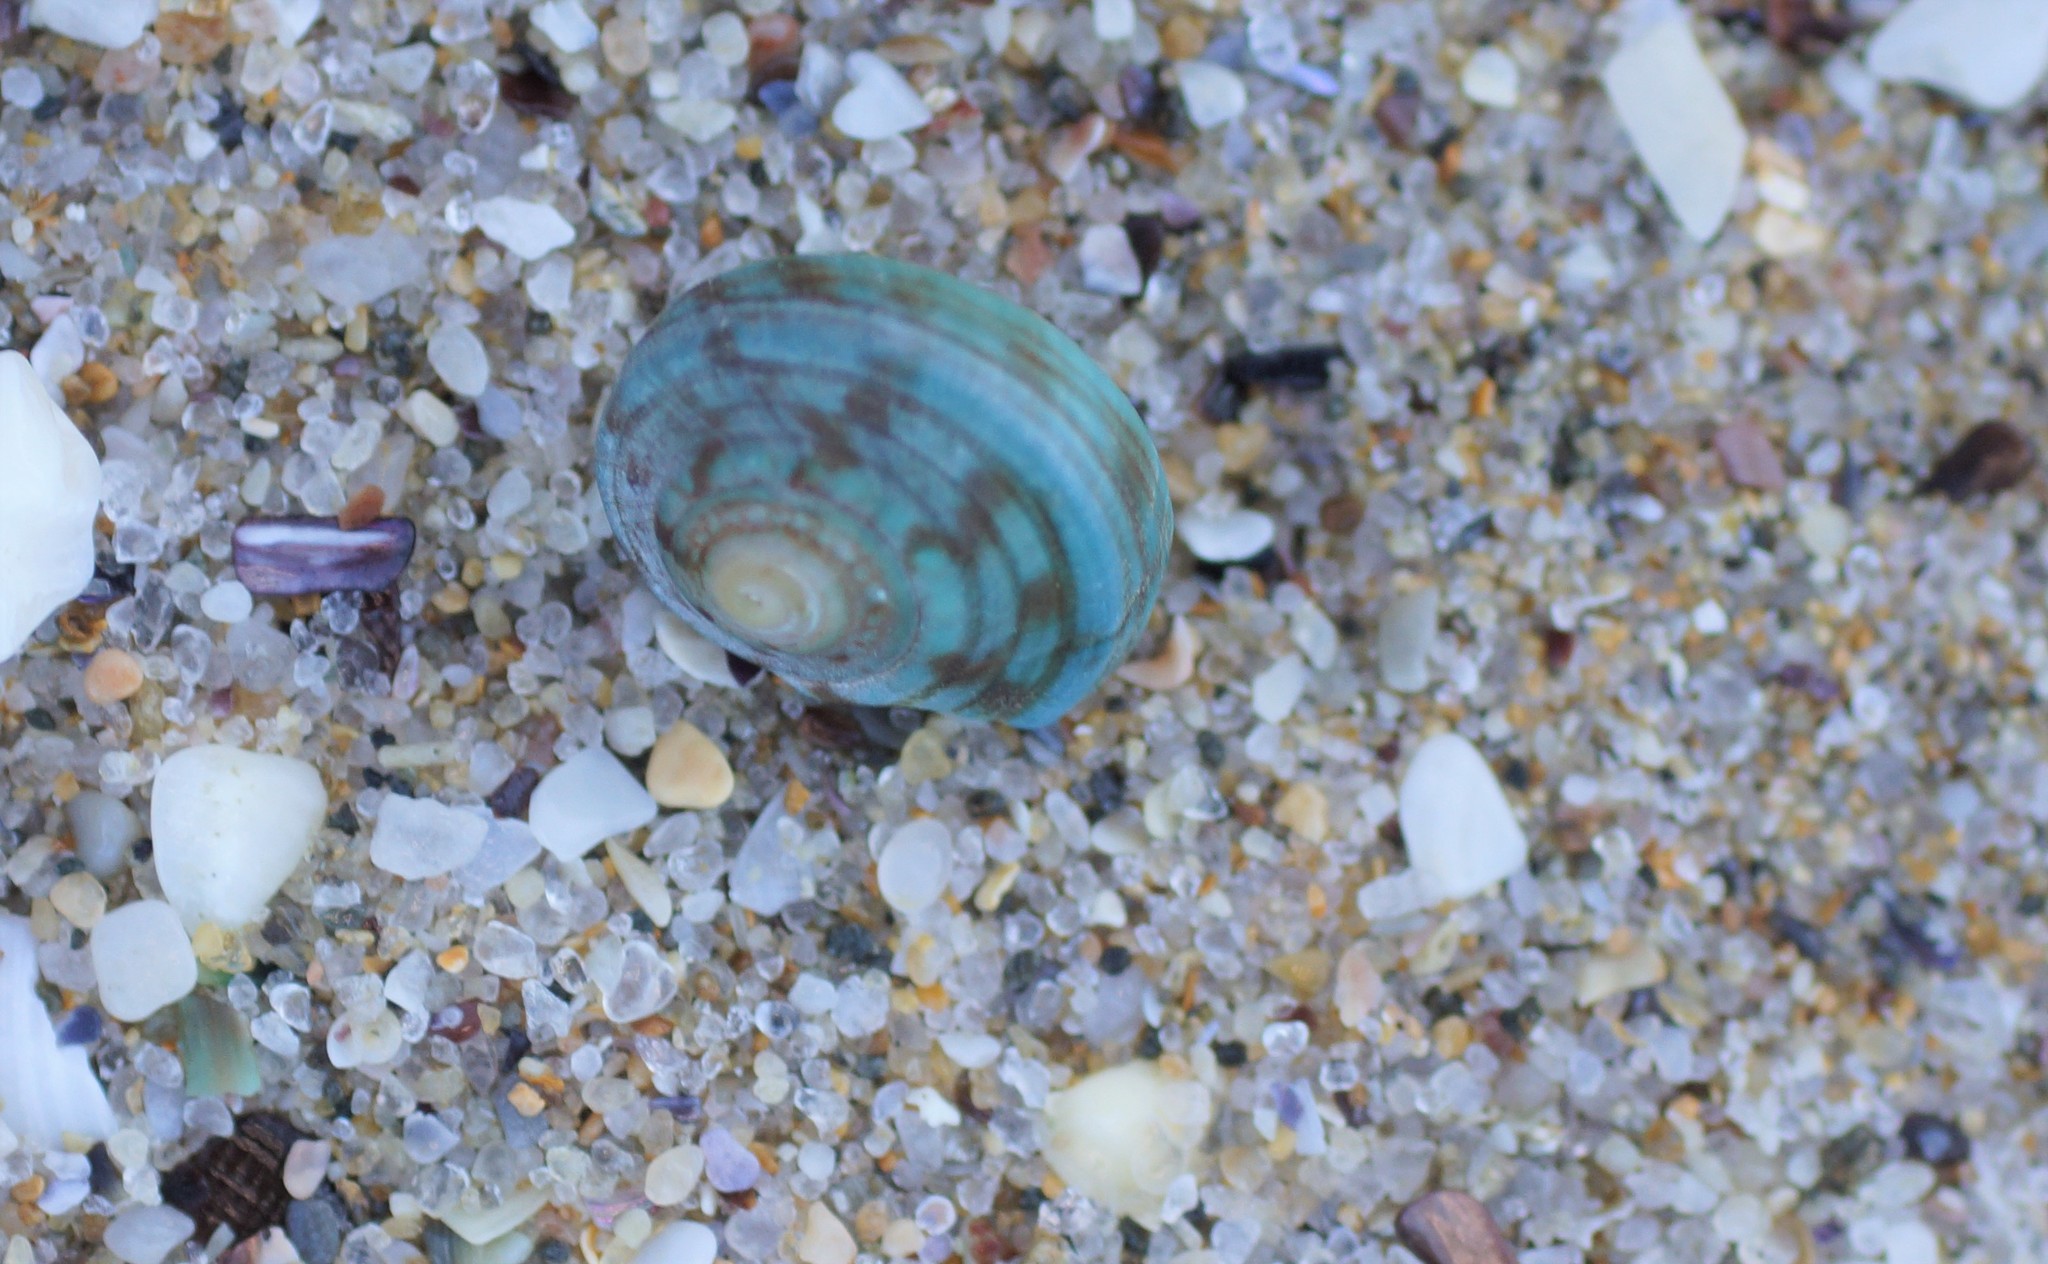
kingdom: Animalia
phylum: Mollusca
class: Gastropoda
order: Trochida
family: Turbinidae
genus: Lunella
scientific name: Lunella undulata
